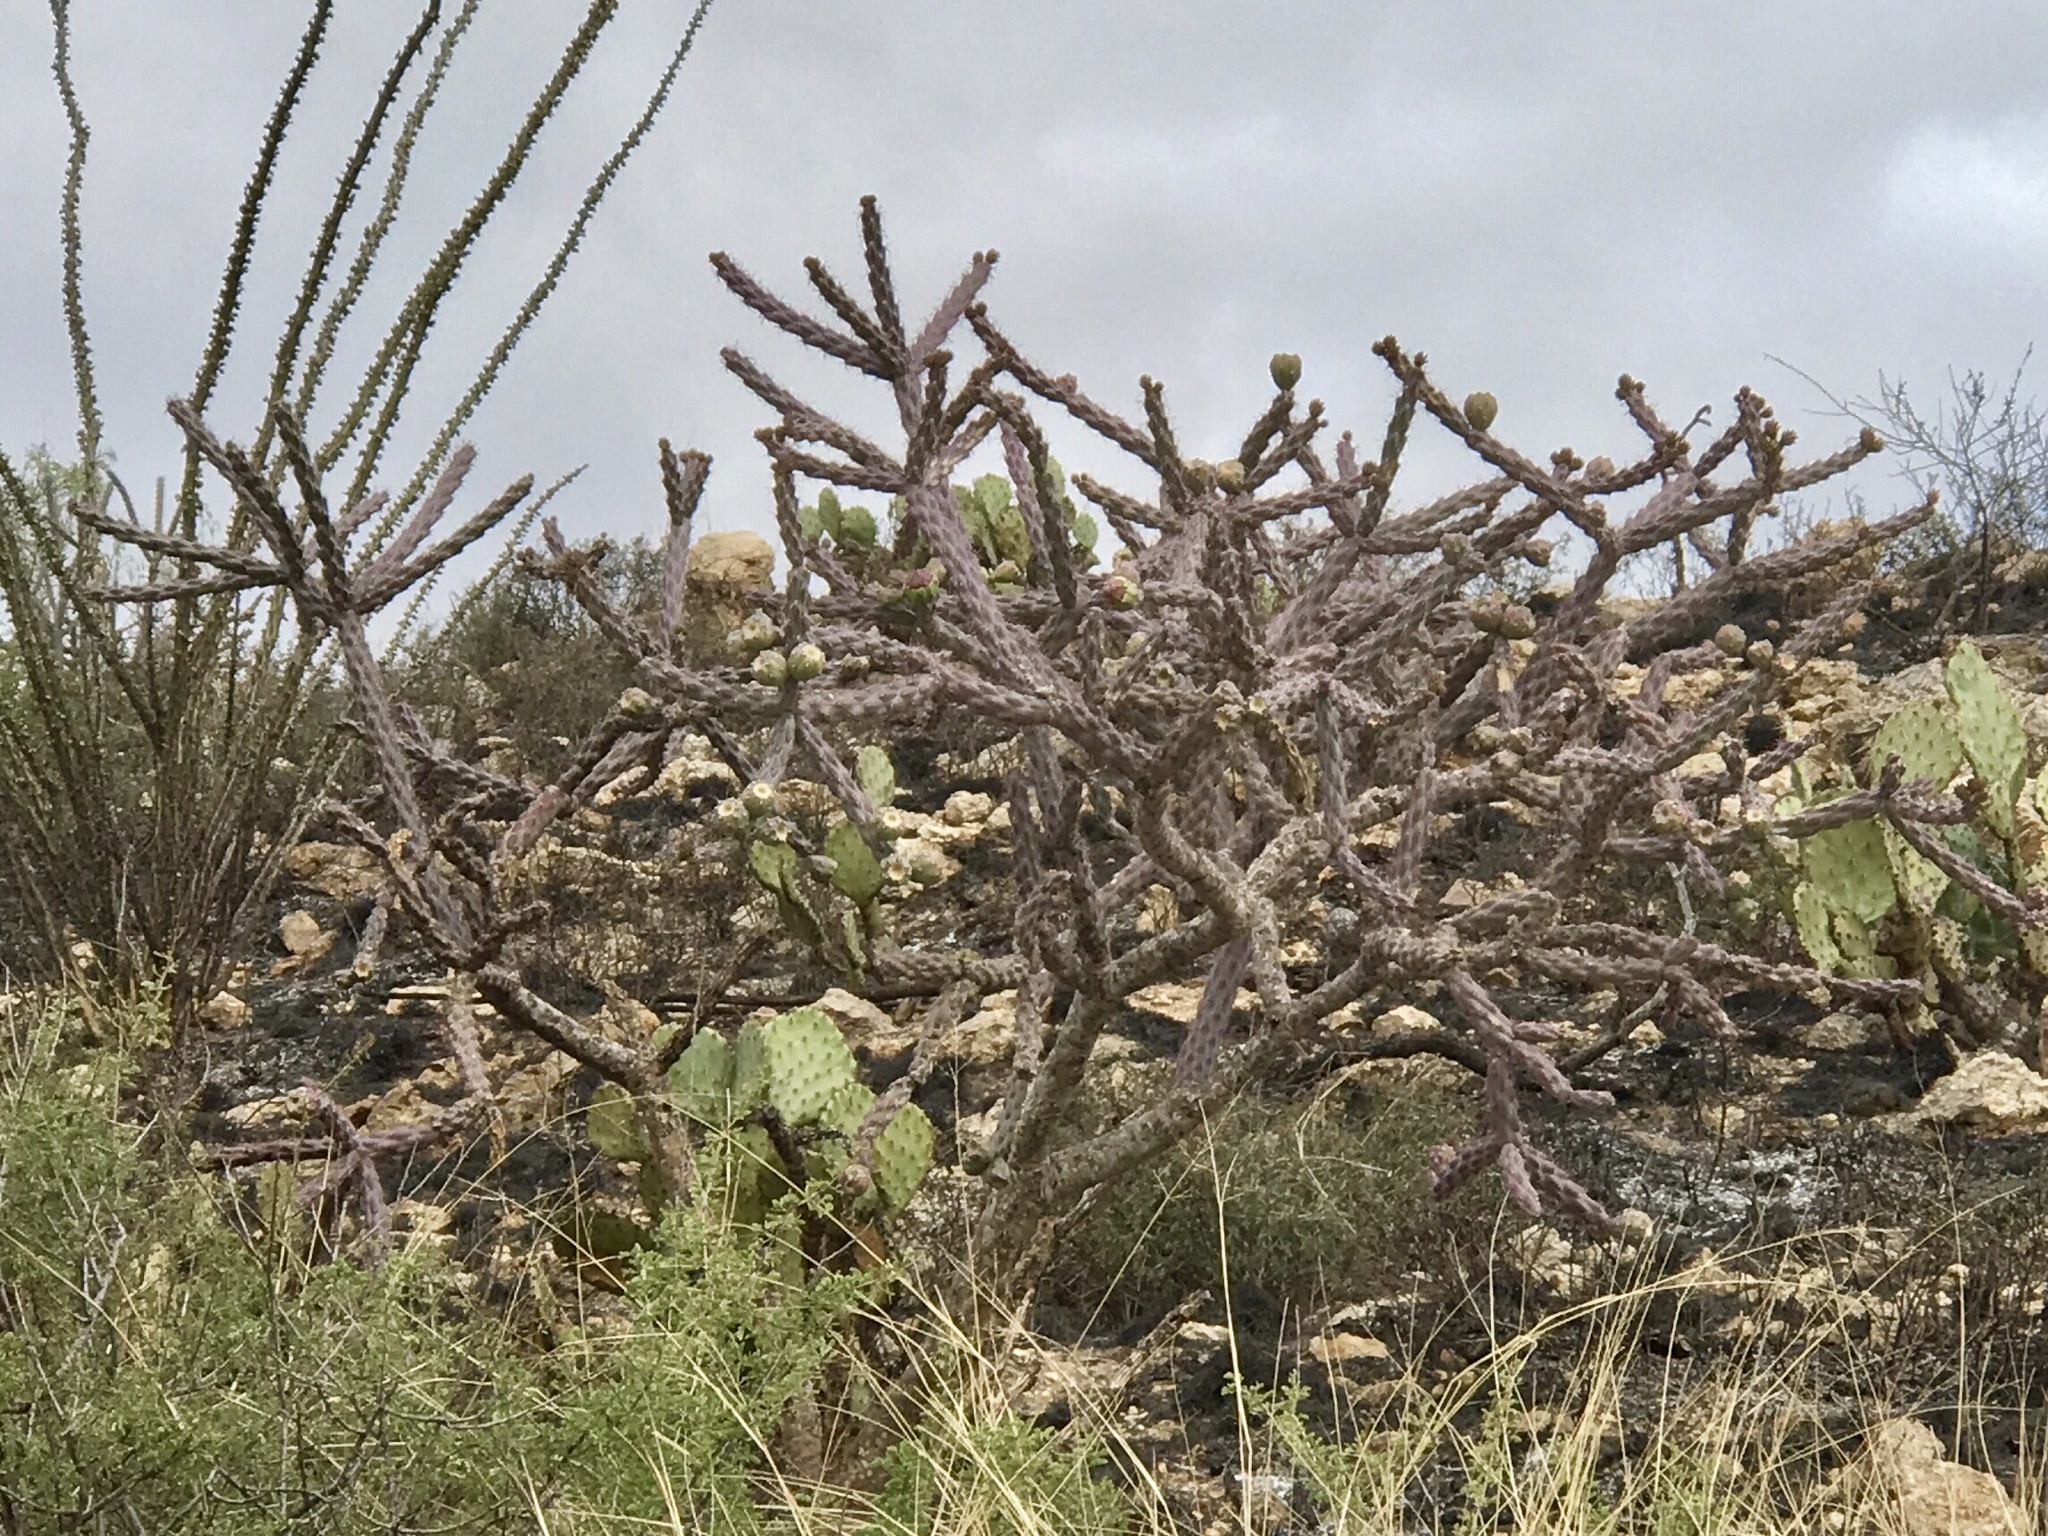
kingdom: Plantae
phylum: Tracheophyta
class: Magnoliopsida
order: Caryophyllales
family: Cactaceae
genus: Cylindropuntia
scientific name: Cylindropuntia thurberi
